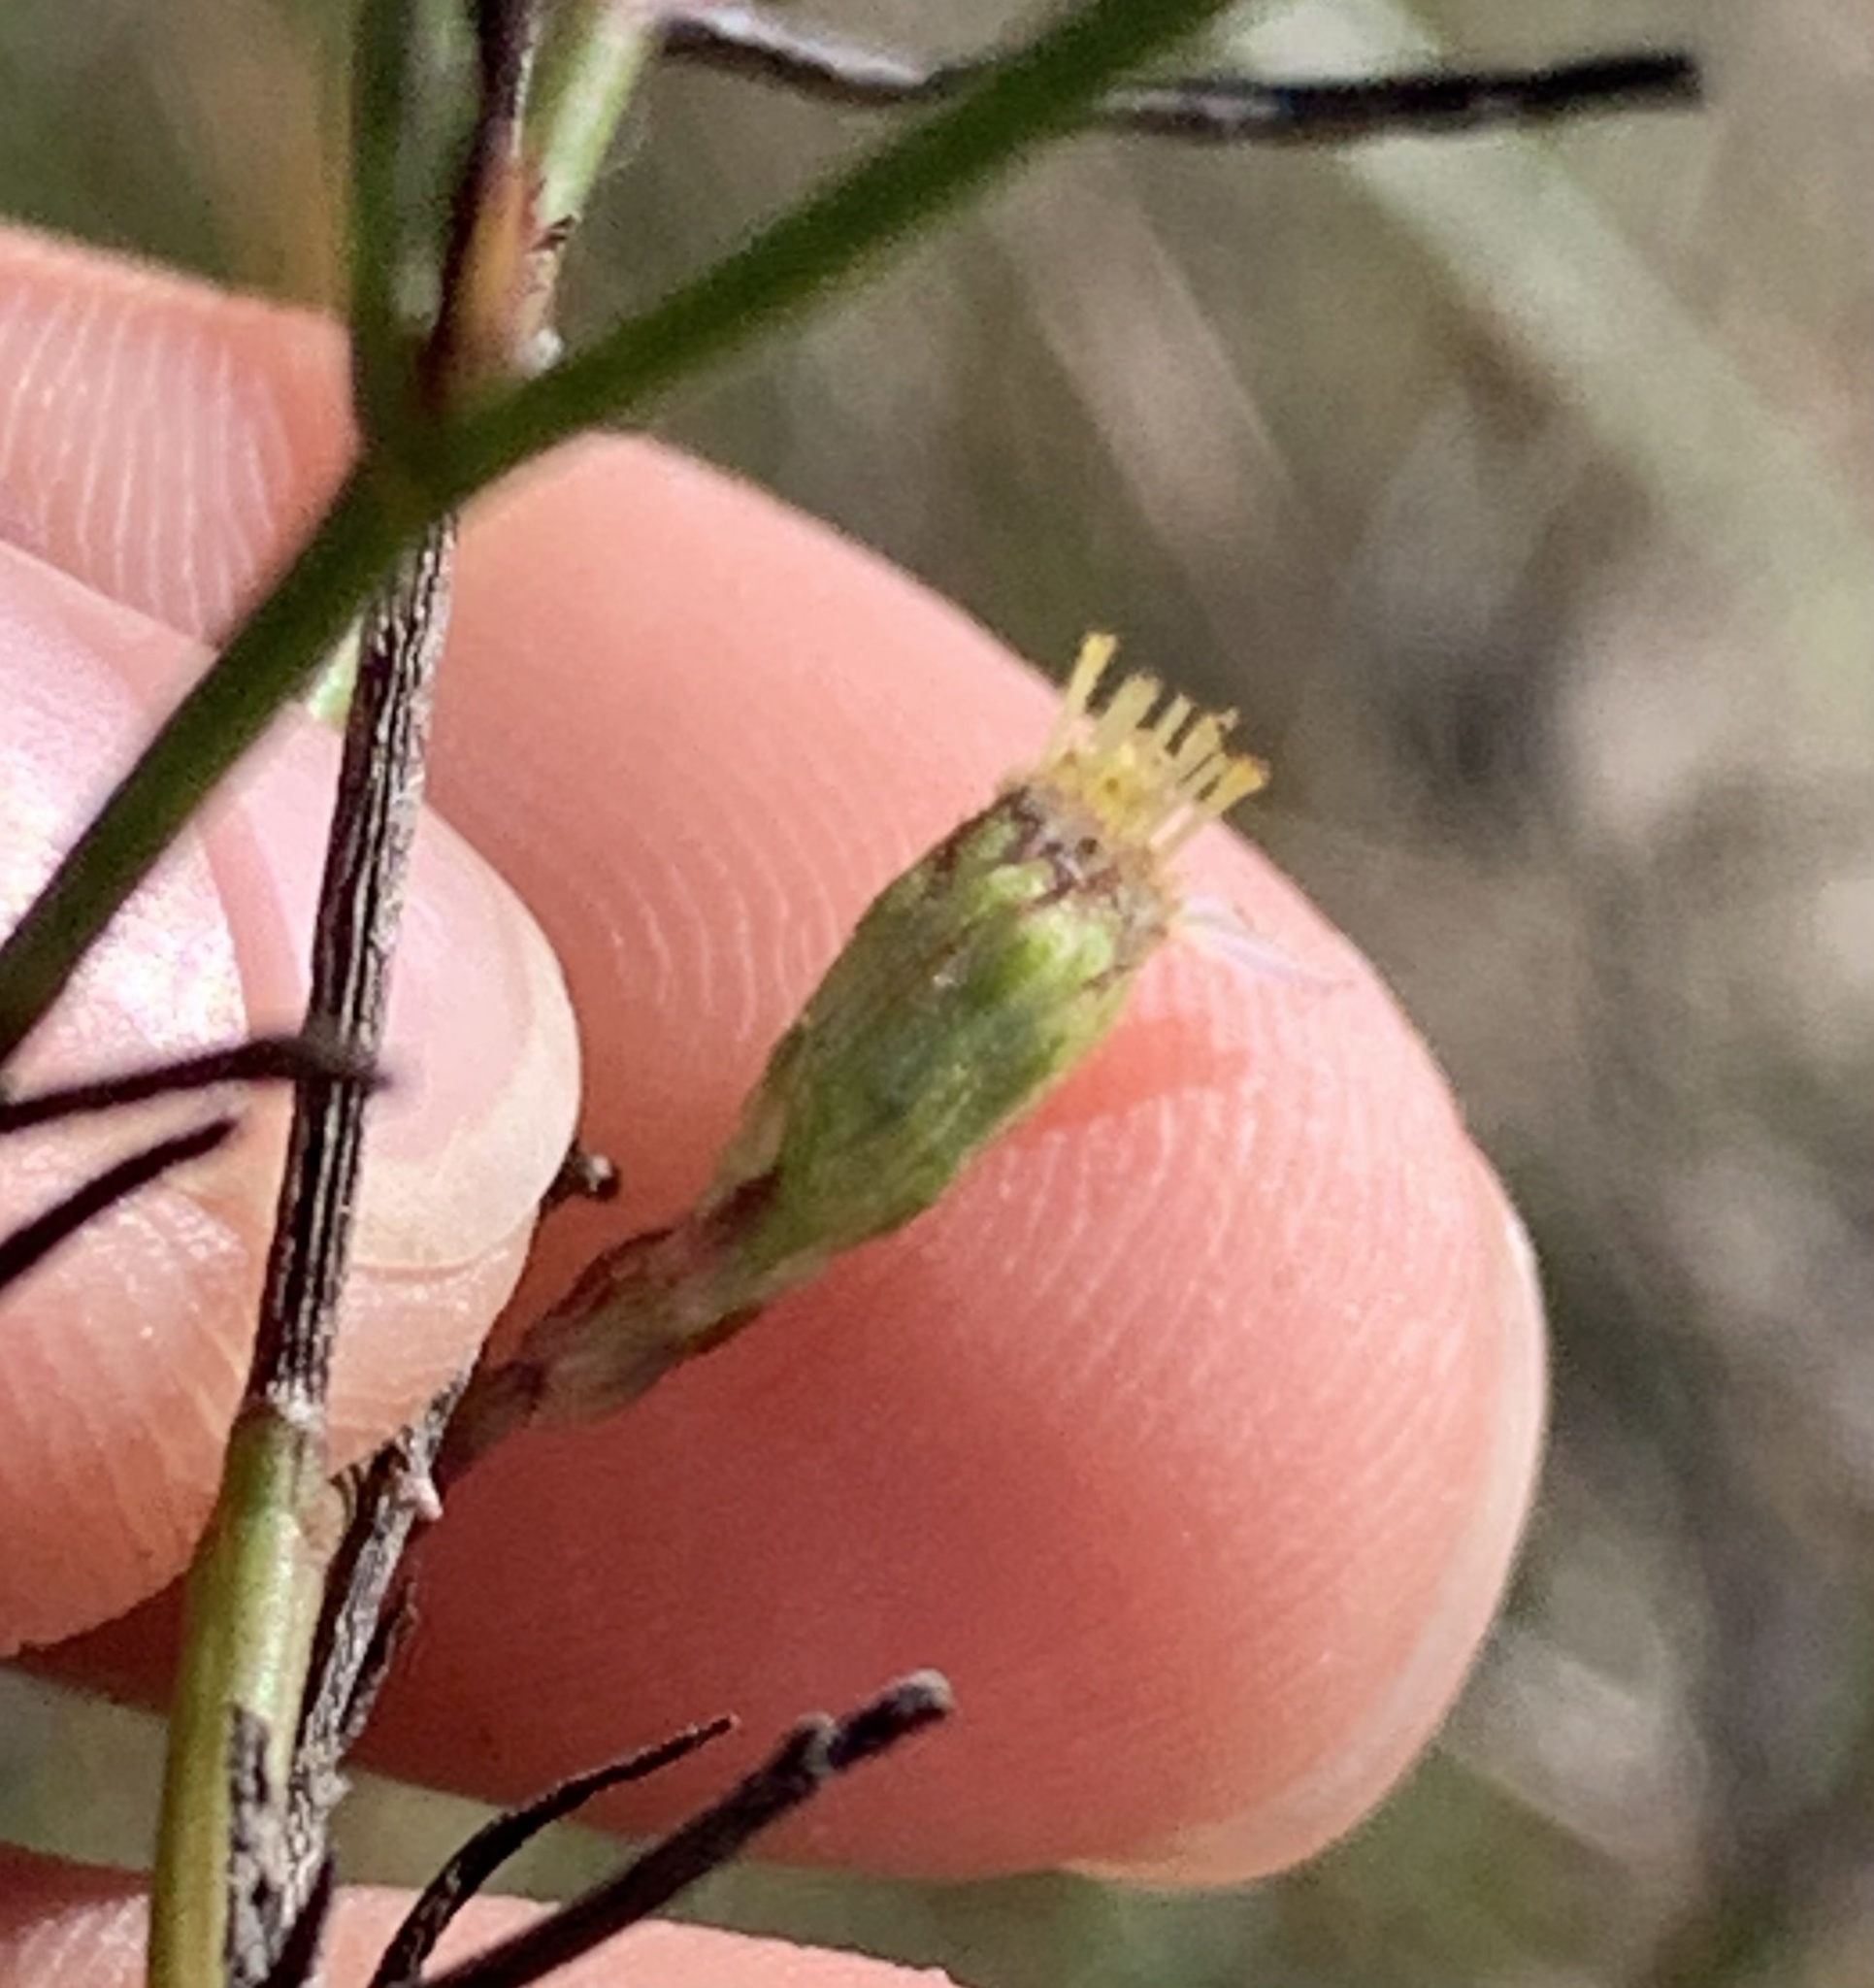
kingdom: Plantae
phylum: Tracheophyta
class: Magnoliopsida
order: Asterales
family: Asteraceae
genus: Symphyotrichum
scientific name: Symphyotrichum tenuifolium
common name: Perennial salt-marsh aster
